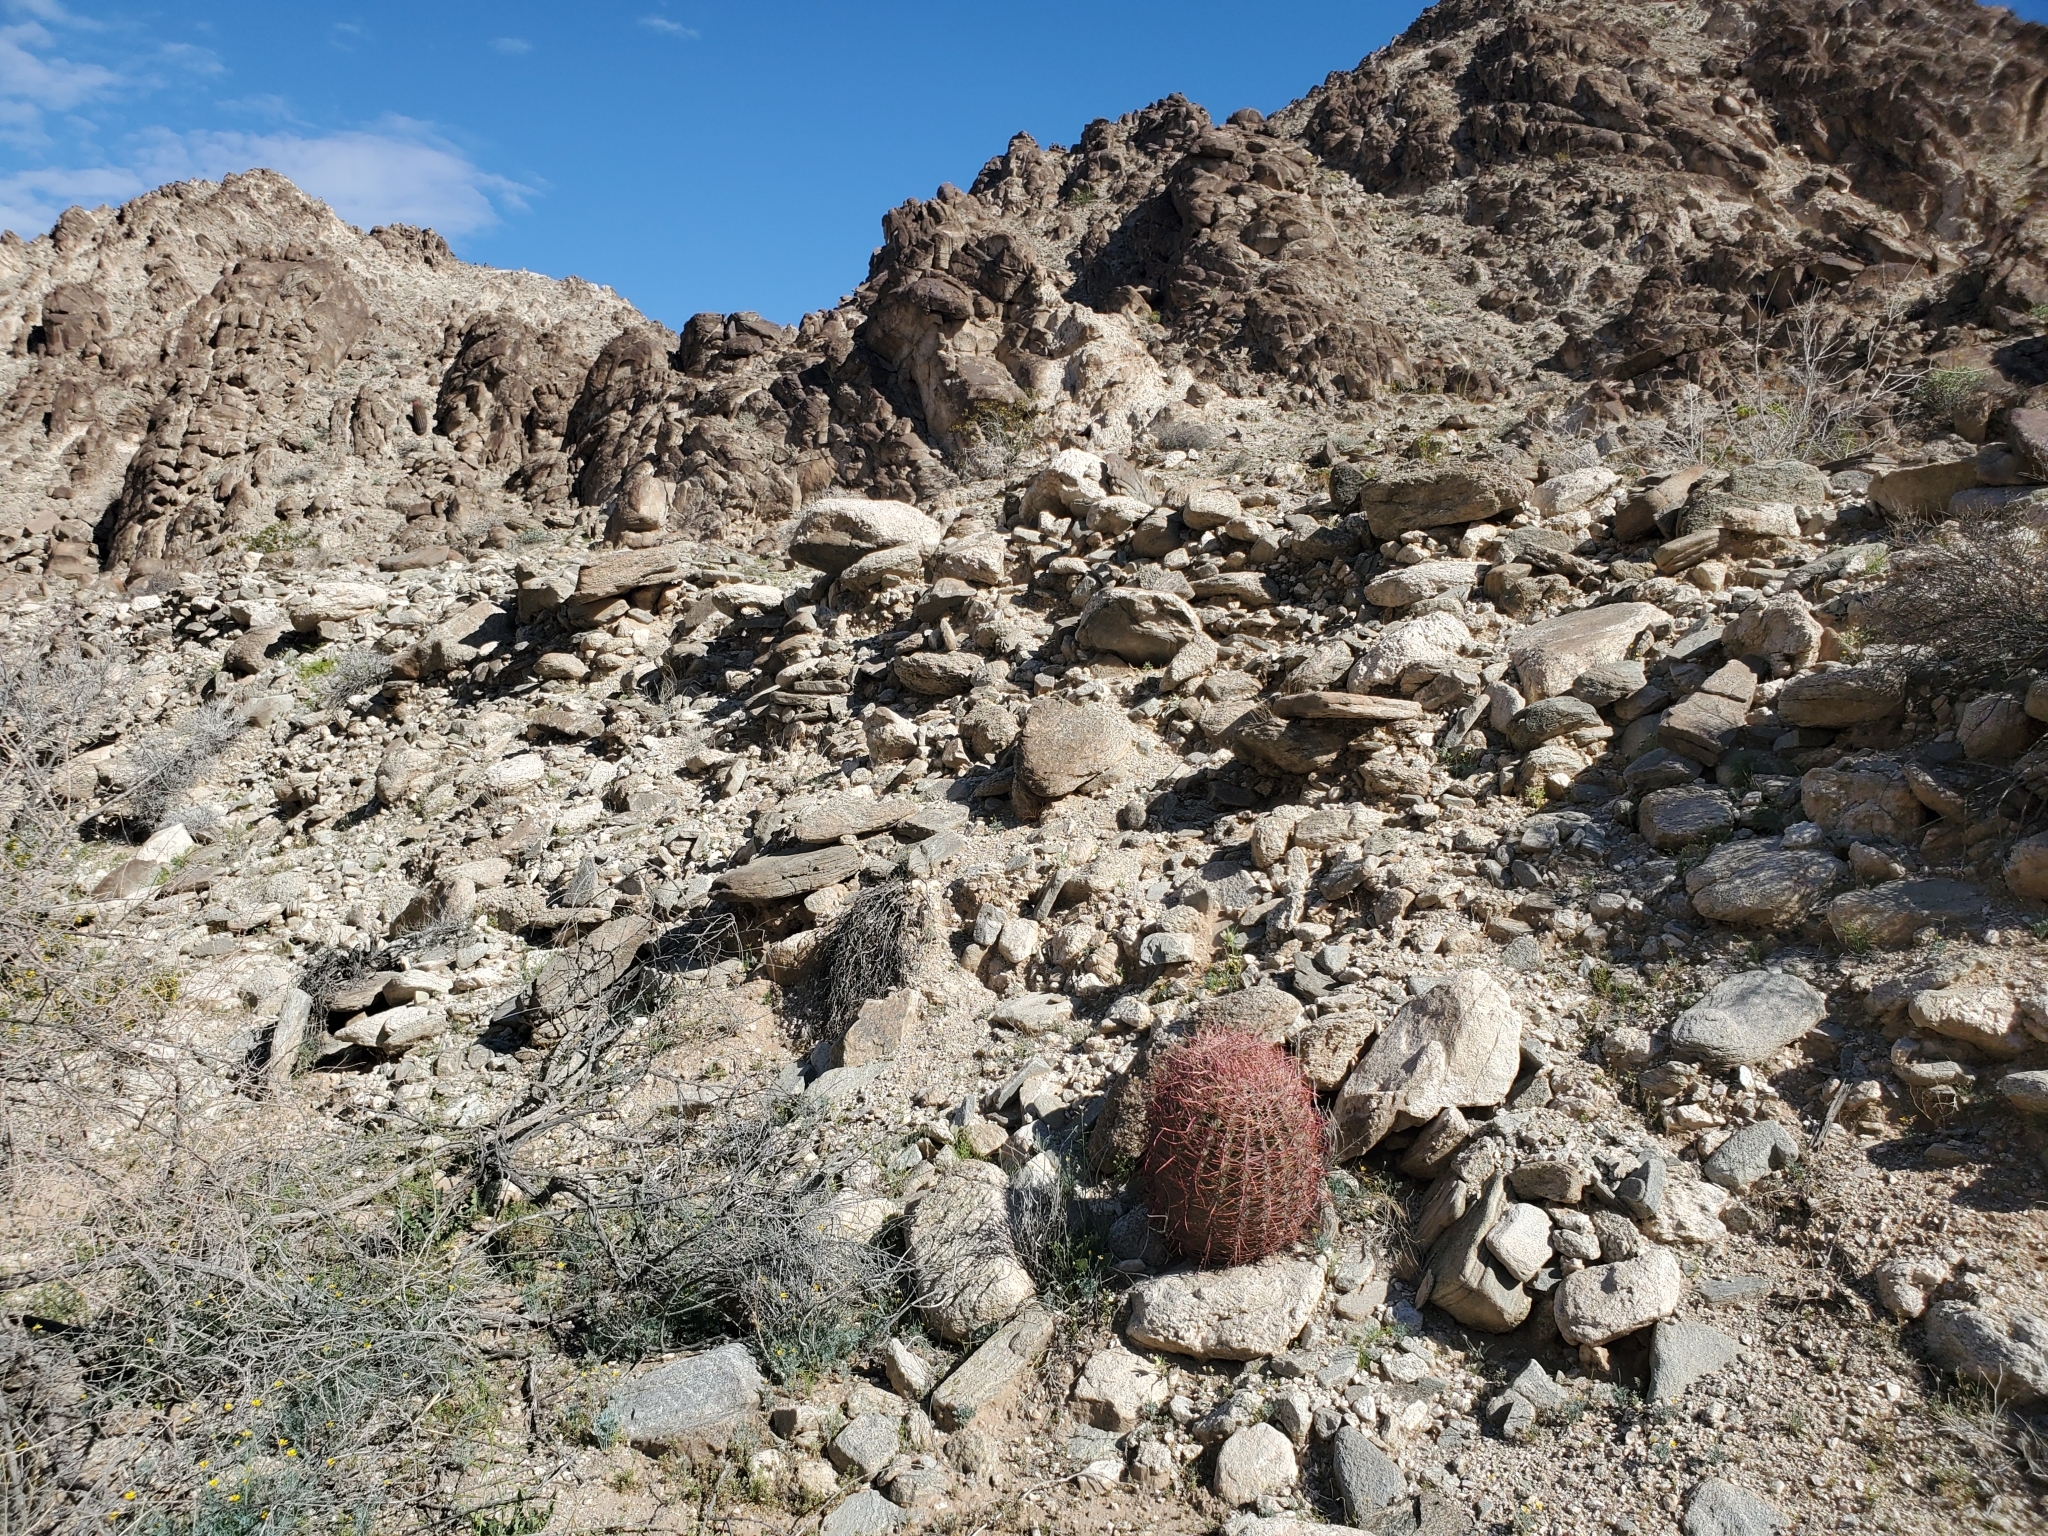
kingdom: Plantae
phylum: Tracheophyta
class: Magnoliopsida
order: Caryophyllales
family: Cactaceae
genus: Ferocactus
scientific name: Ferocactus cylindraceus
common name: California barrel cactus
